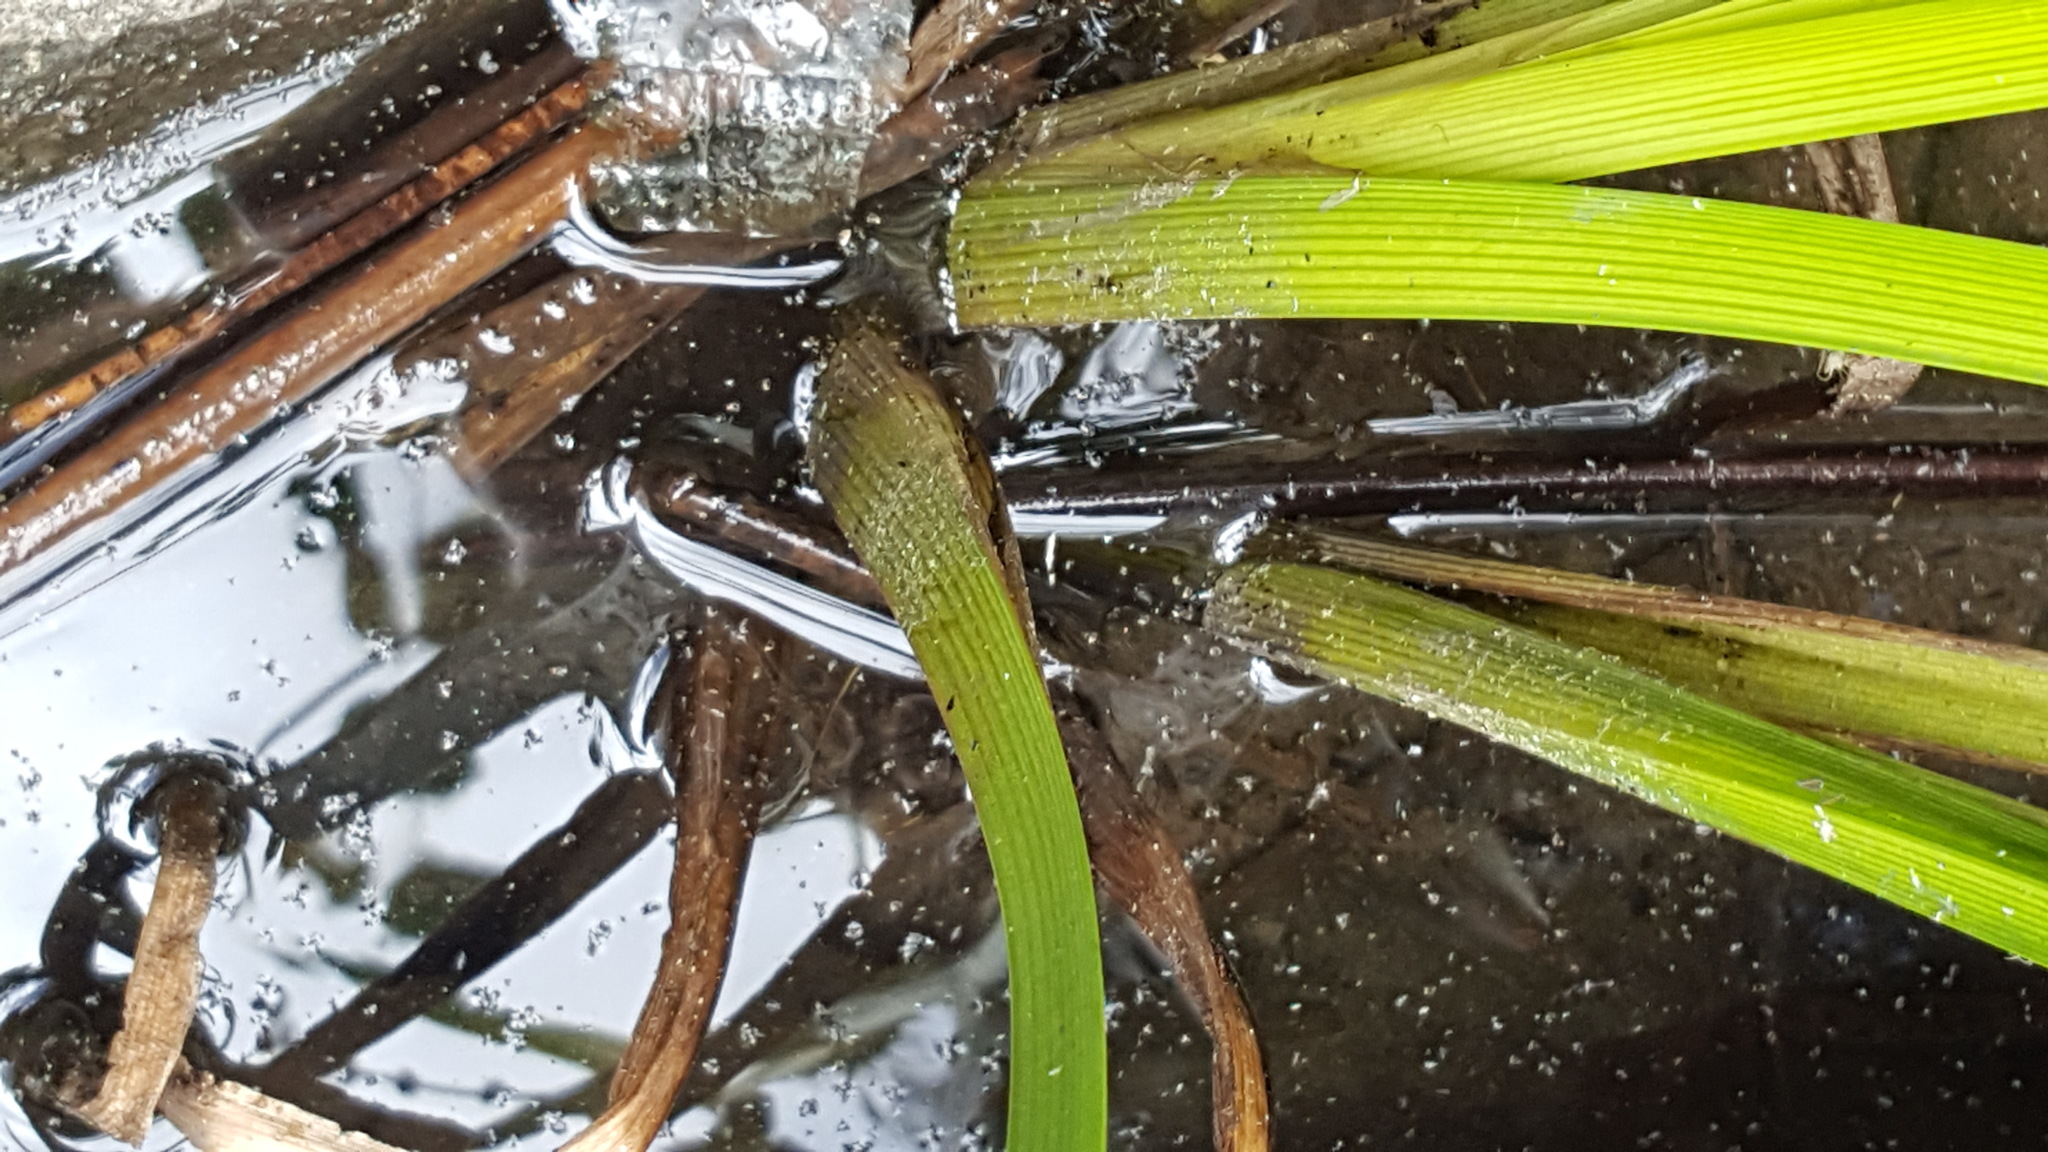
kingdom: Plantae
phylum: Tracheophyta
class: Liliopsida
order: Poales
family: Typhaceae
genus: Sparganium
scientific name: Sparganium emersum
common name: Unbranched bur-reed
